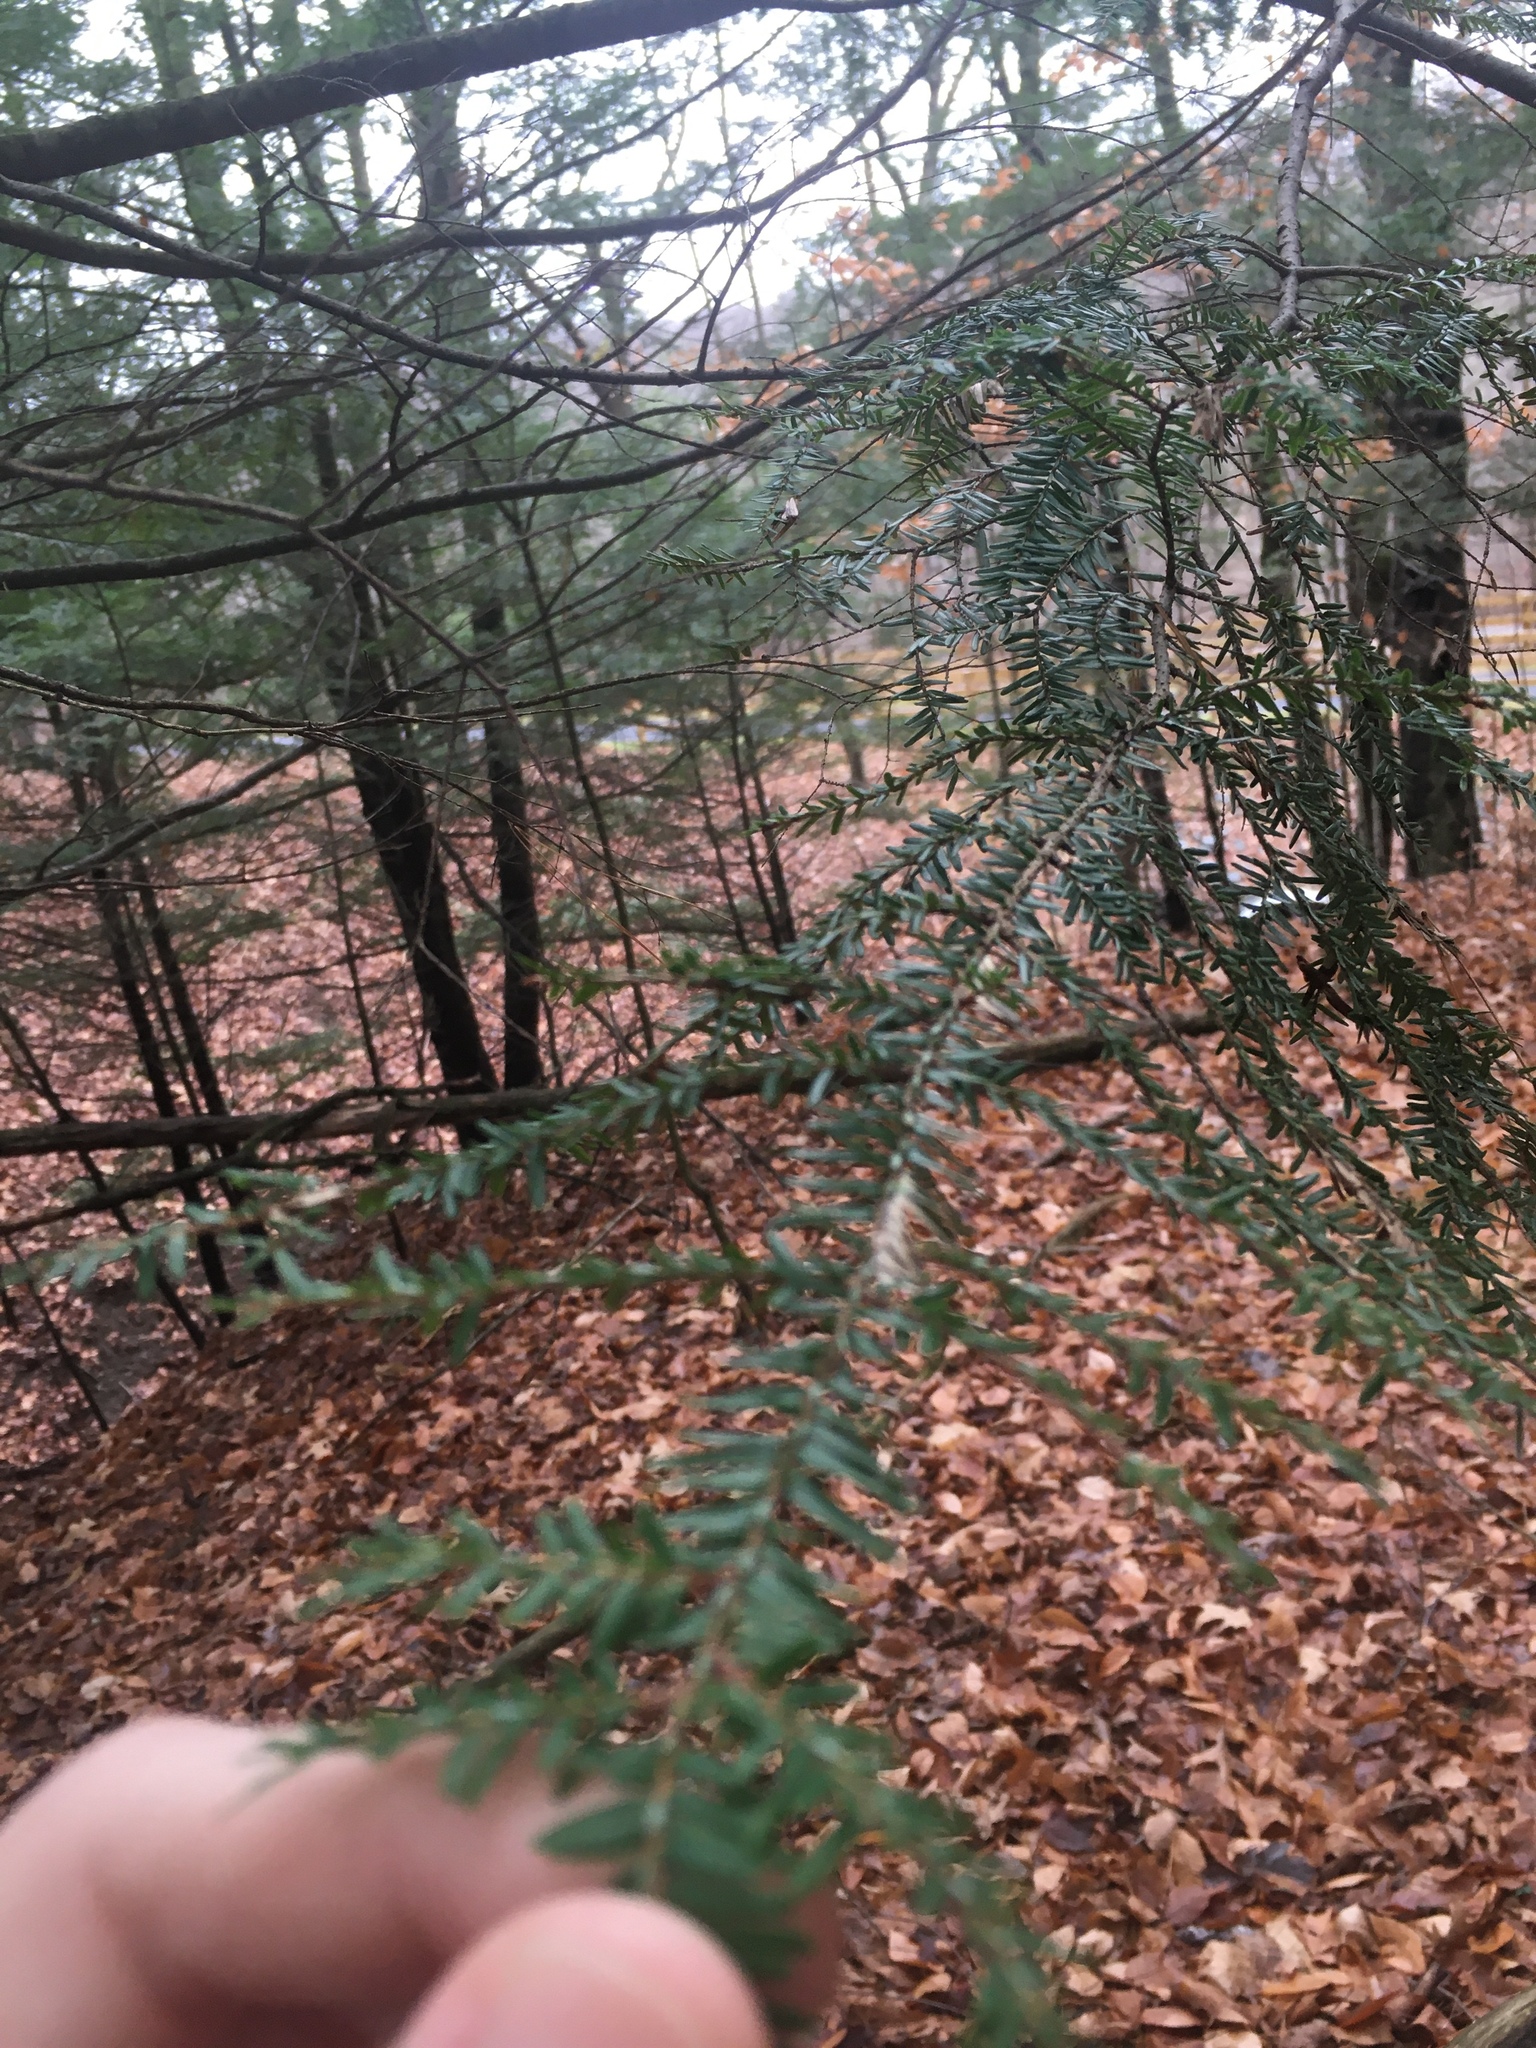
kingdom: Plantae
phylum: Tracheophyta
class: Pinopsida
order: Pinales
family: Pinaceae
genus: Tsuga
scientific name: Tsuga canadensis
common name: Eastern hemlock
